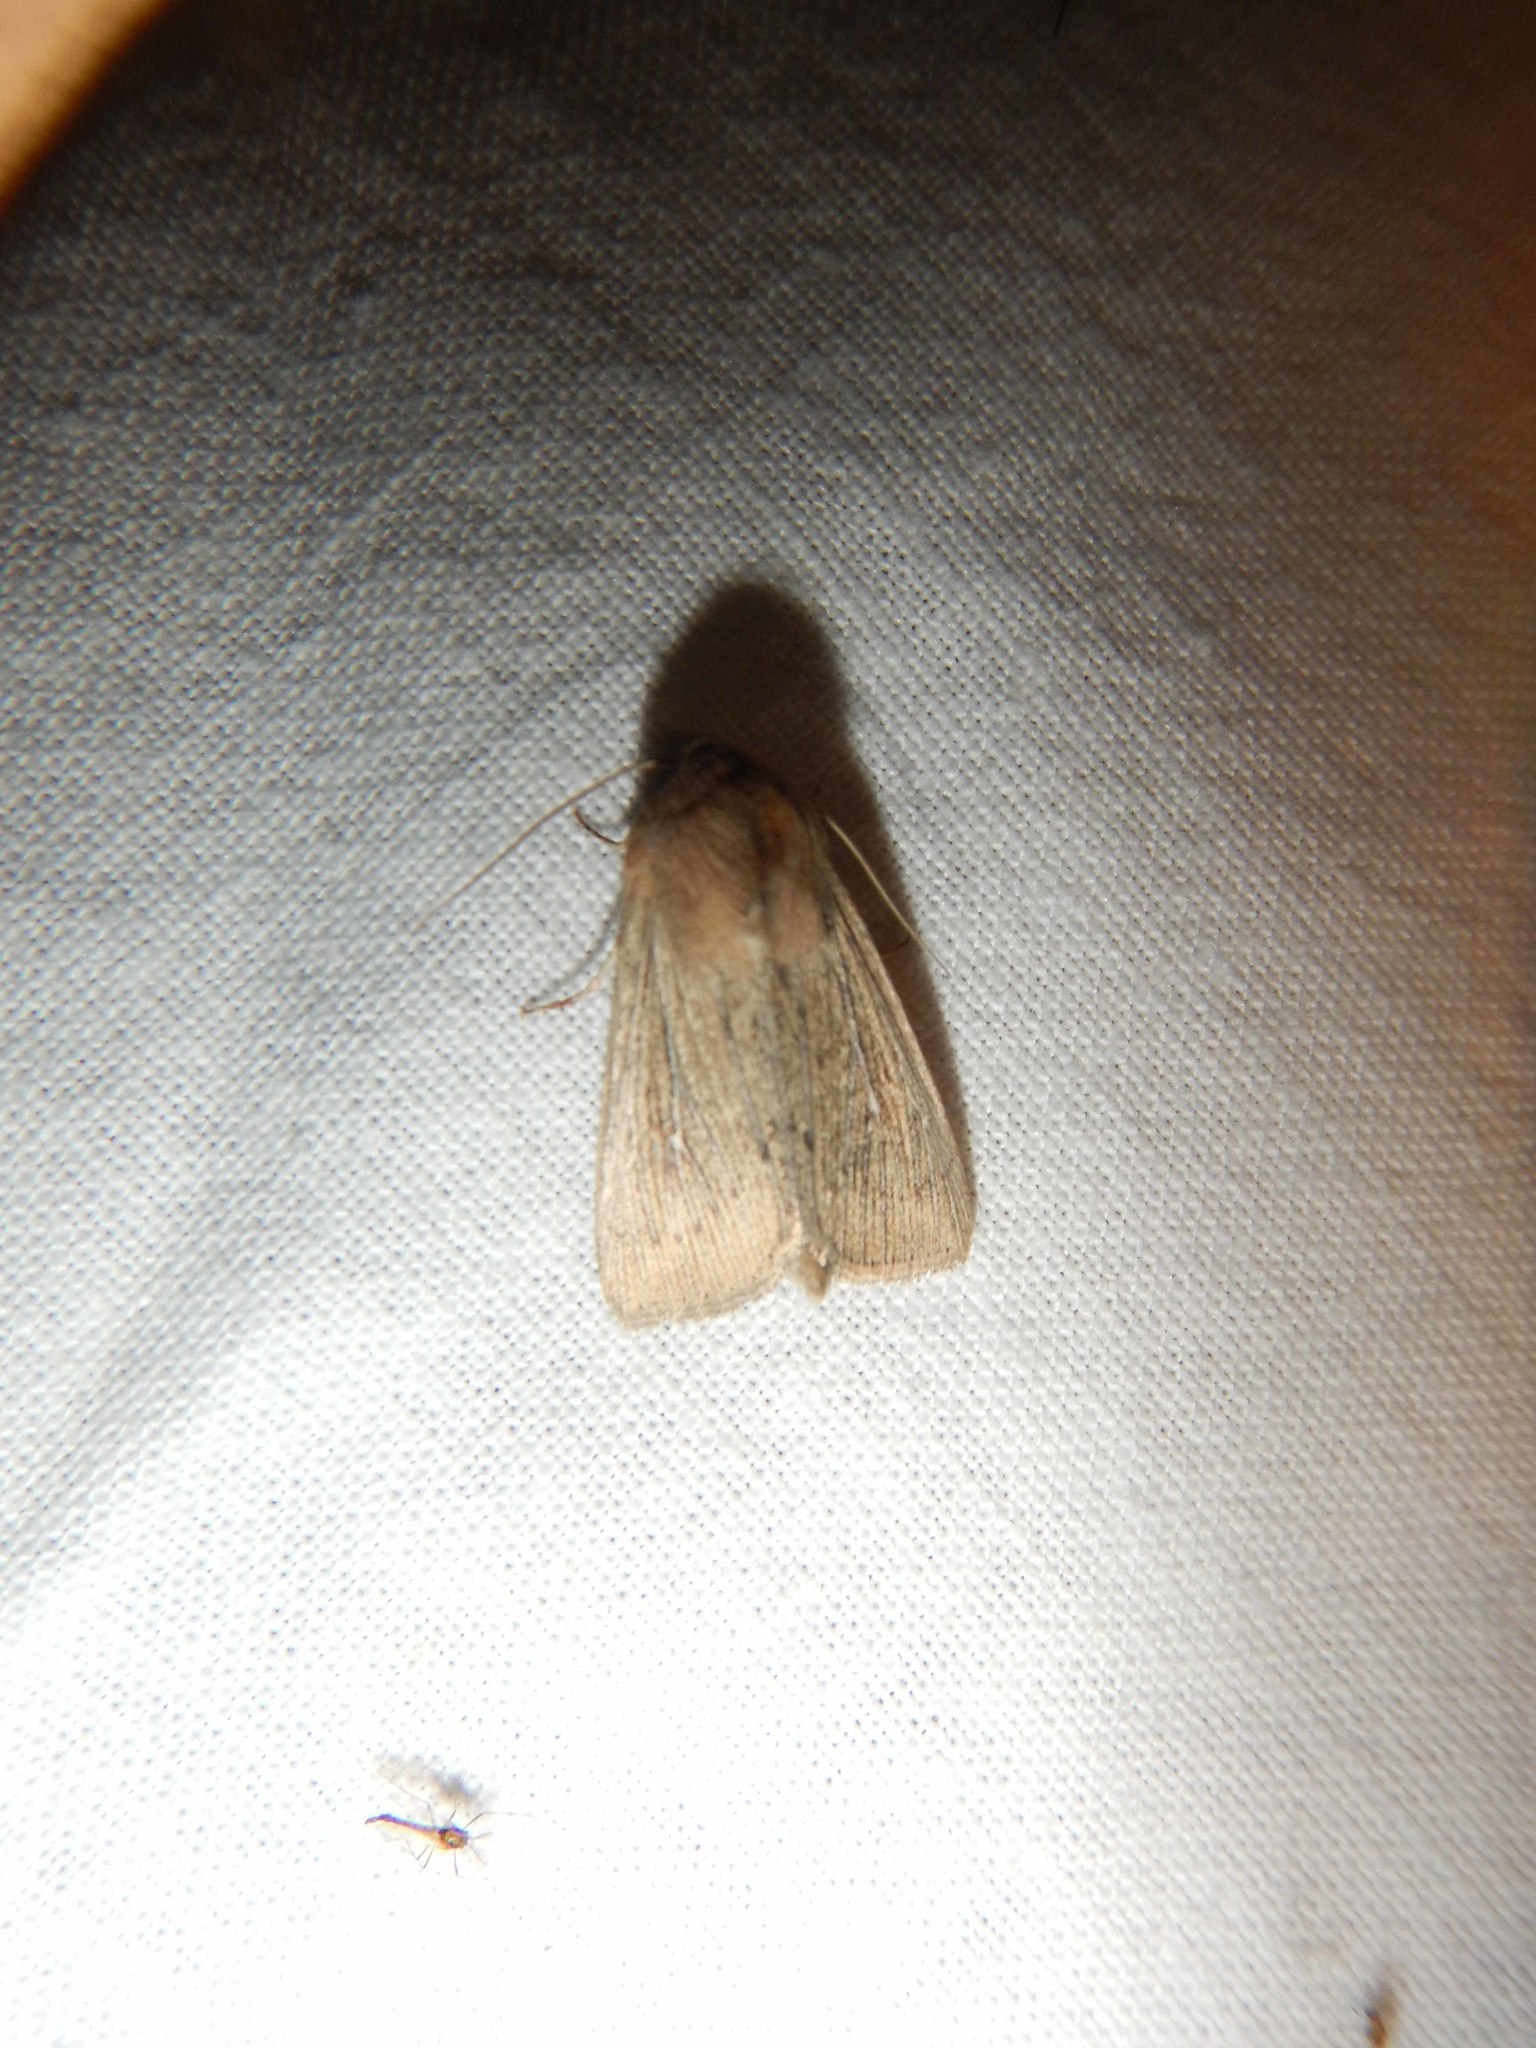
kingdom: Animalia
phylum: Arthropoda
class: Insecta
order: Lepidoptera
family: Noctuidae
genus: Leucania
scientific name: Leucania obsoleta
